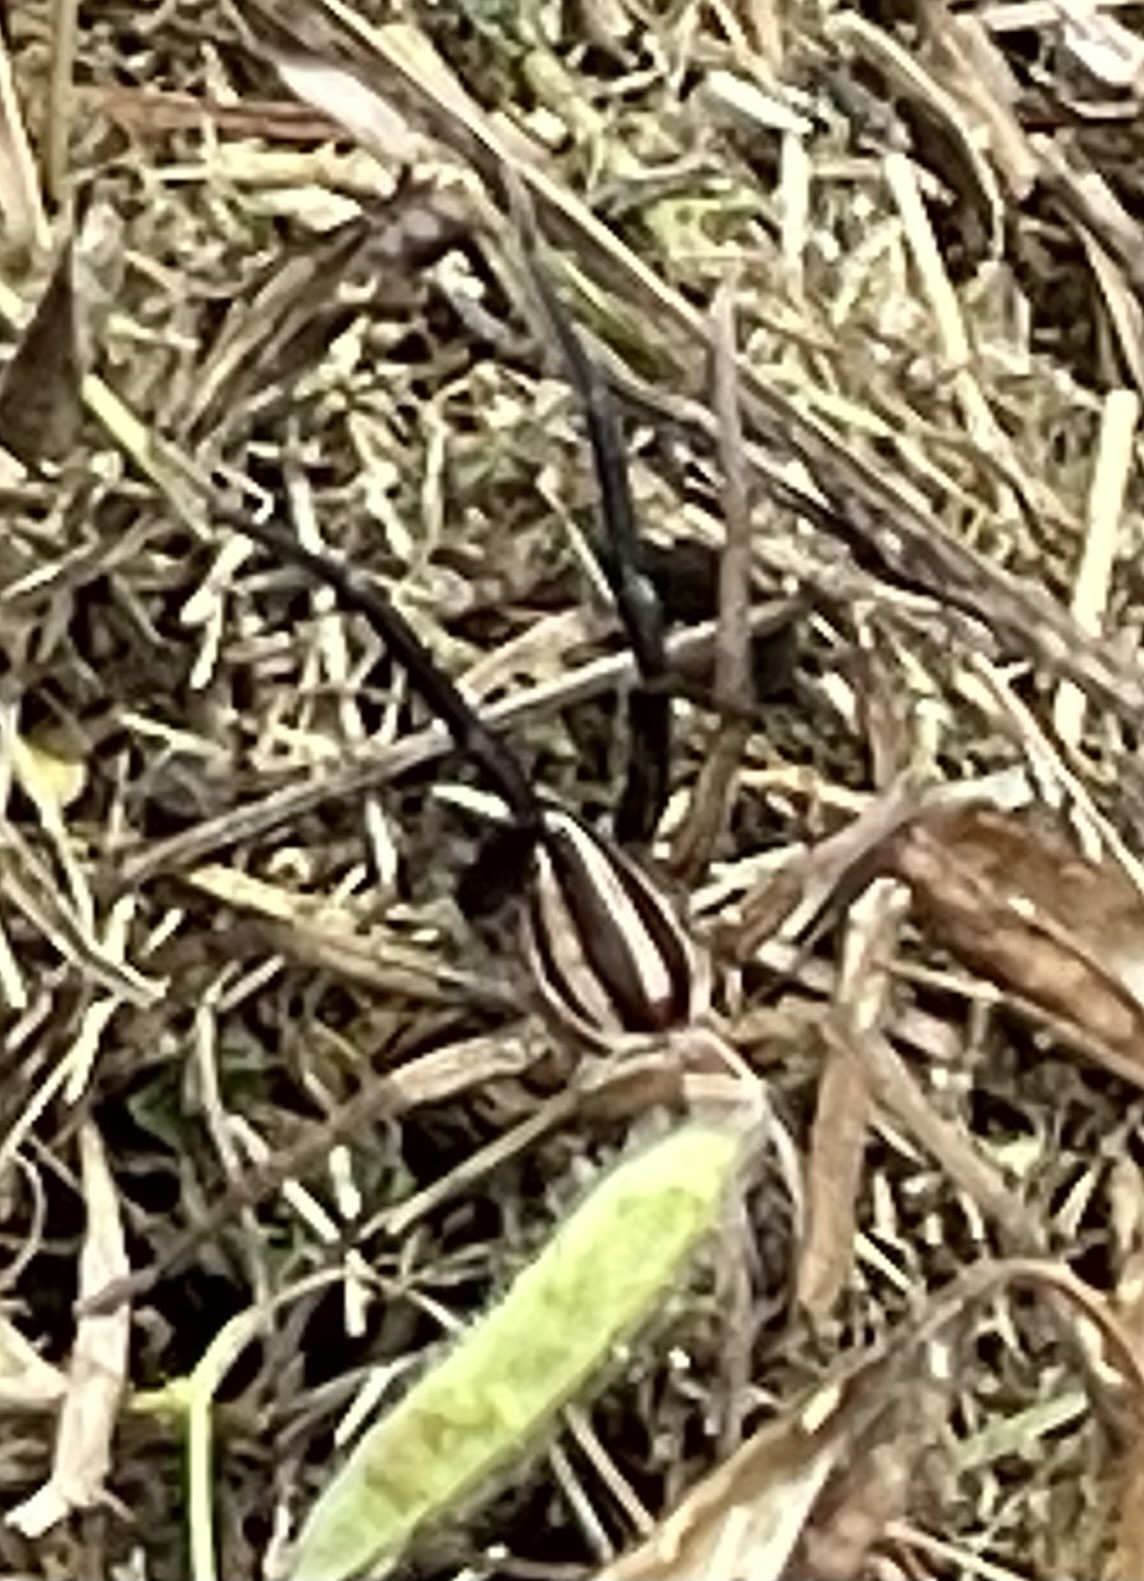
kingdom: Animalia
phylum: Arthropoda
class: Arachnida
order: Araneae
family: Lycosidae
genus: Rabidosa
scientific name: Rabidosa rabida
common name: Rabid wolf spider
